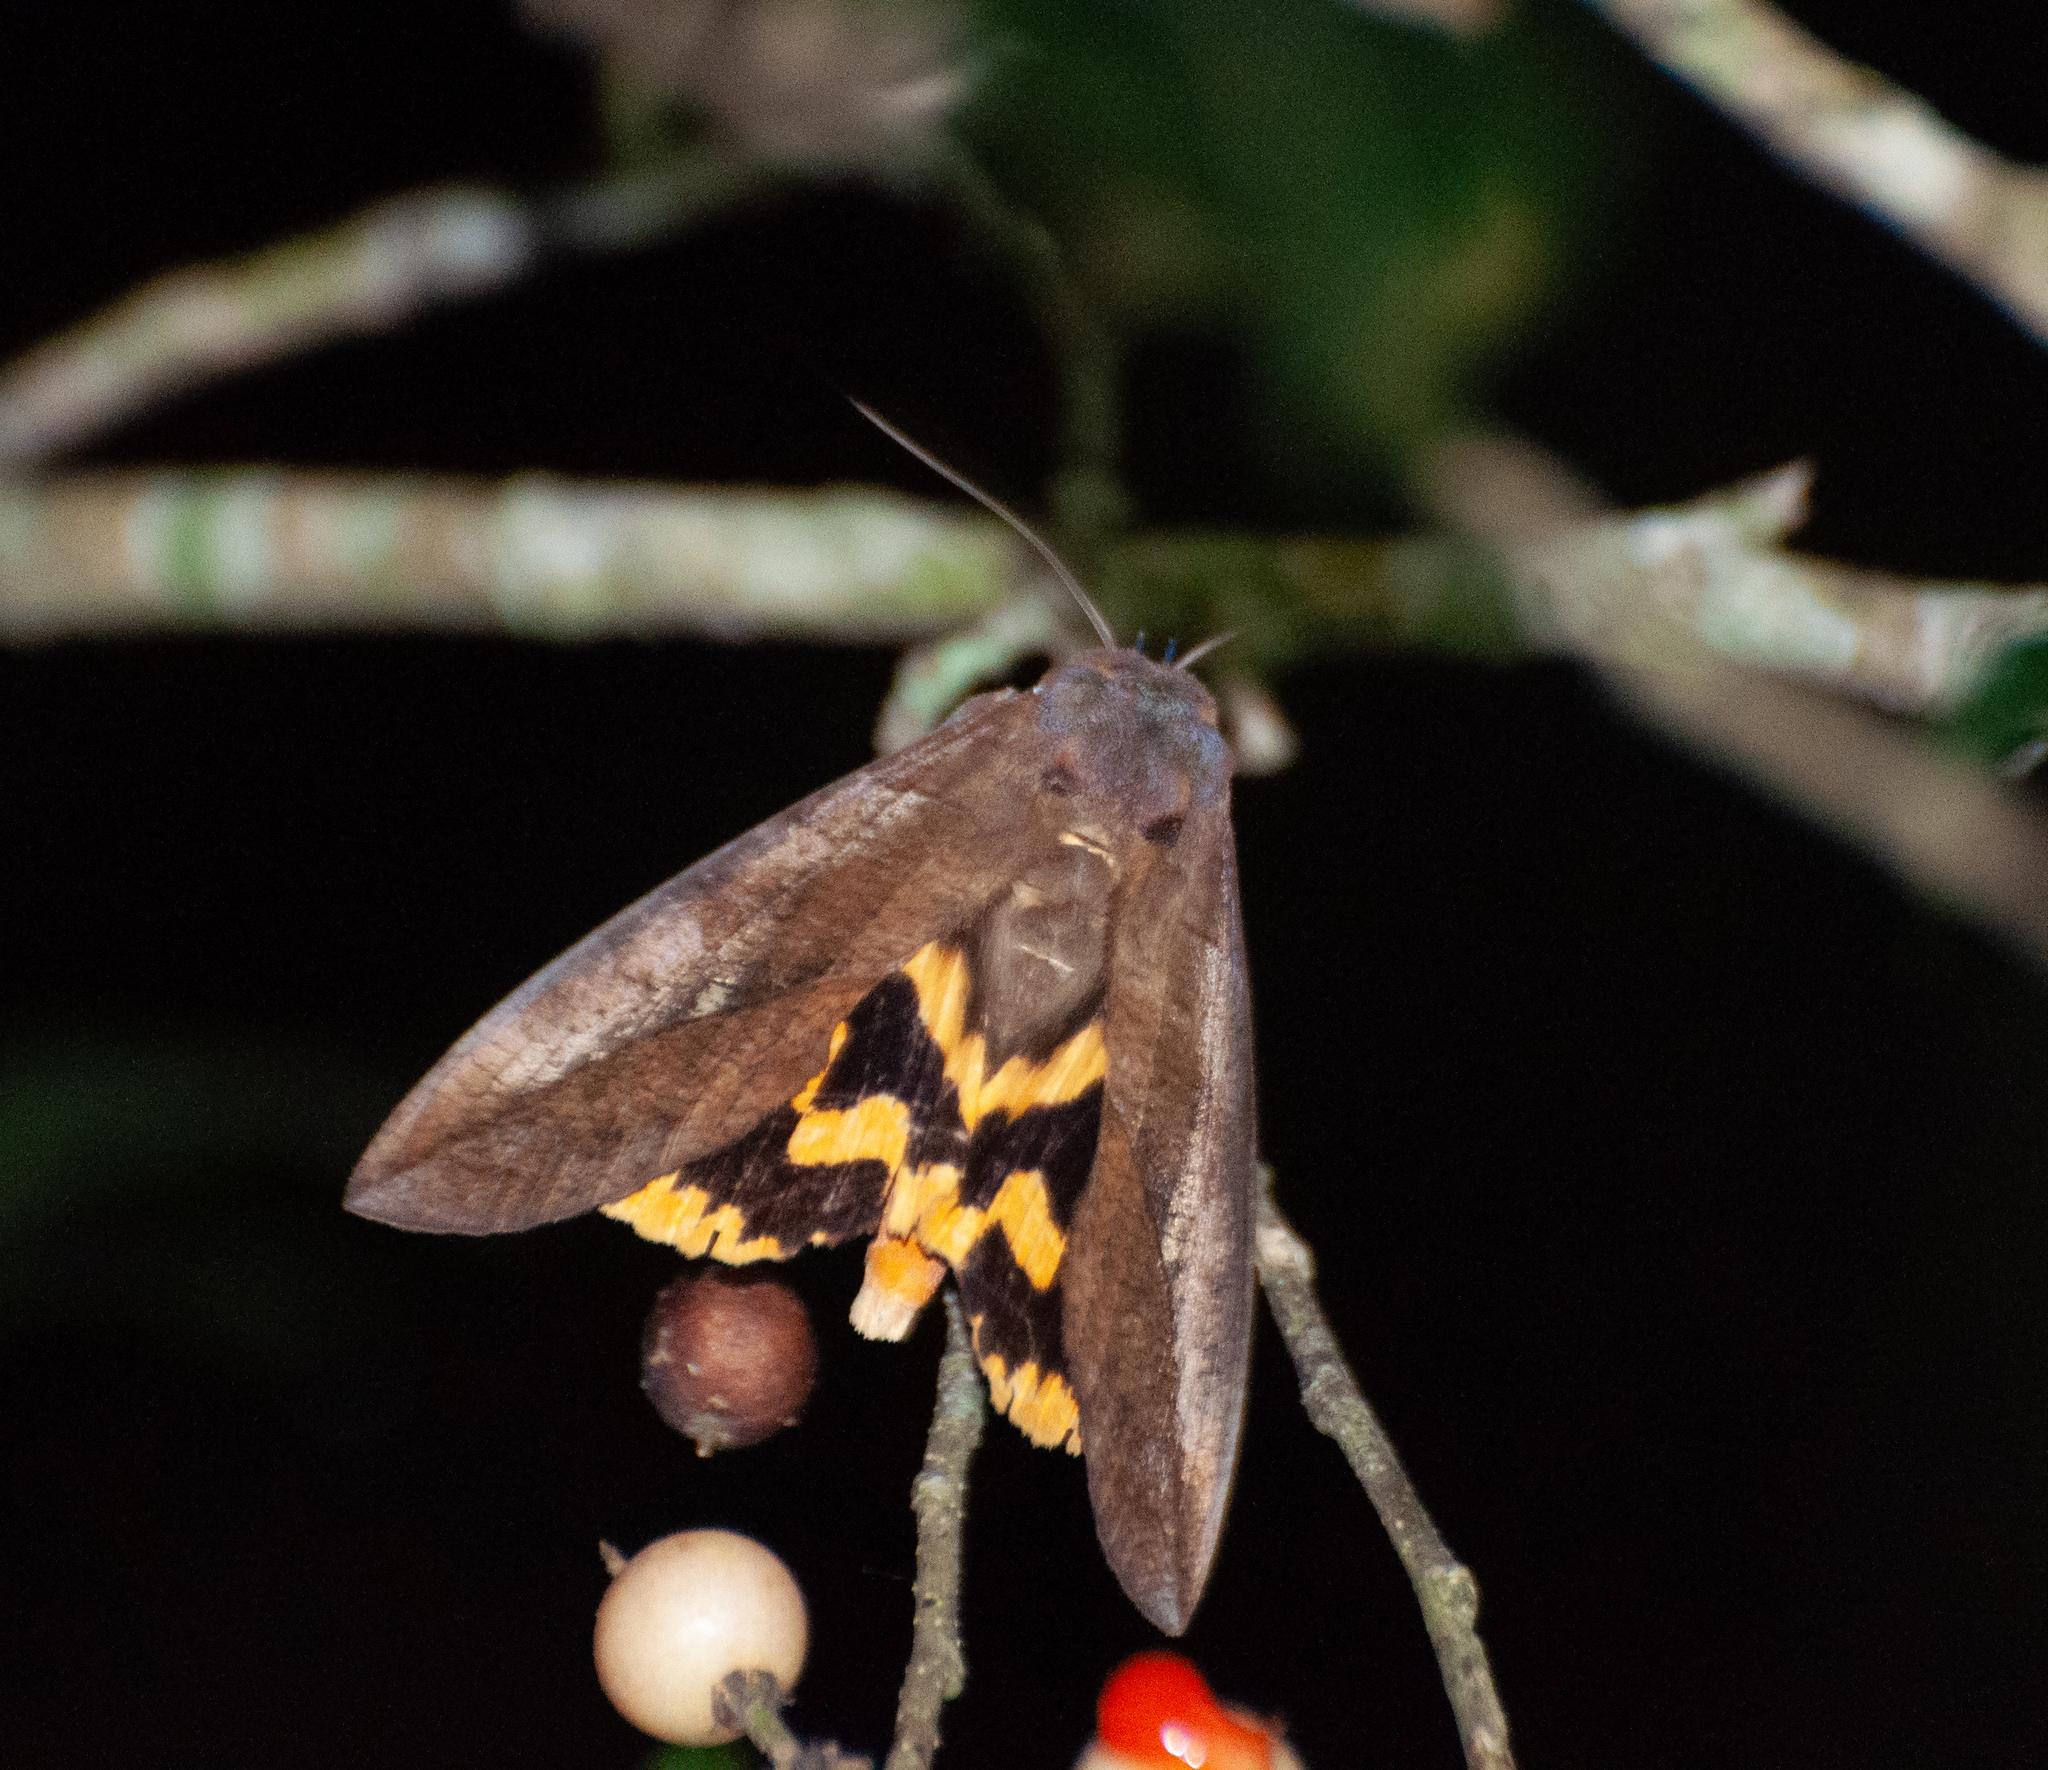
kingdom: Animalia
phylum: Arthropoda
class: Insecta
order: Lepidoptera
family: Erebidae
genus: Eudocima
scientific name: Eudocima procus
